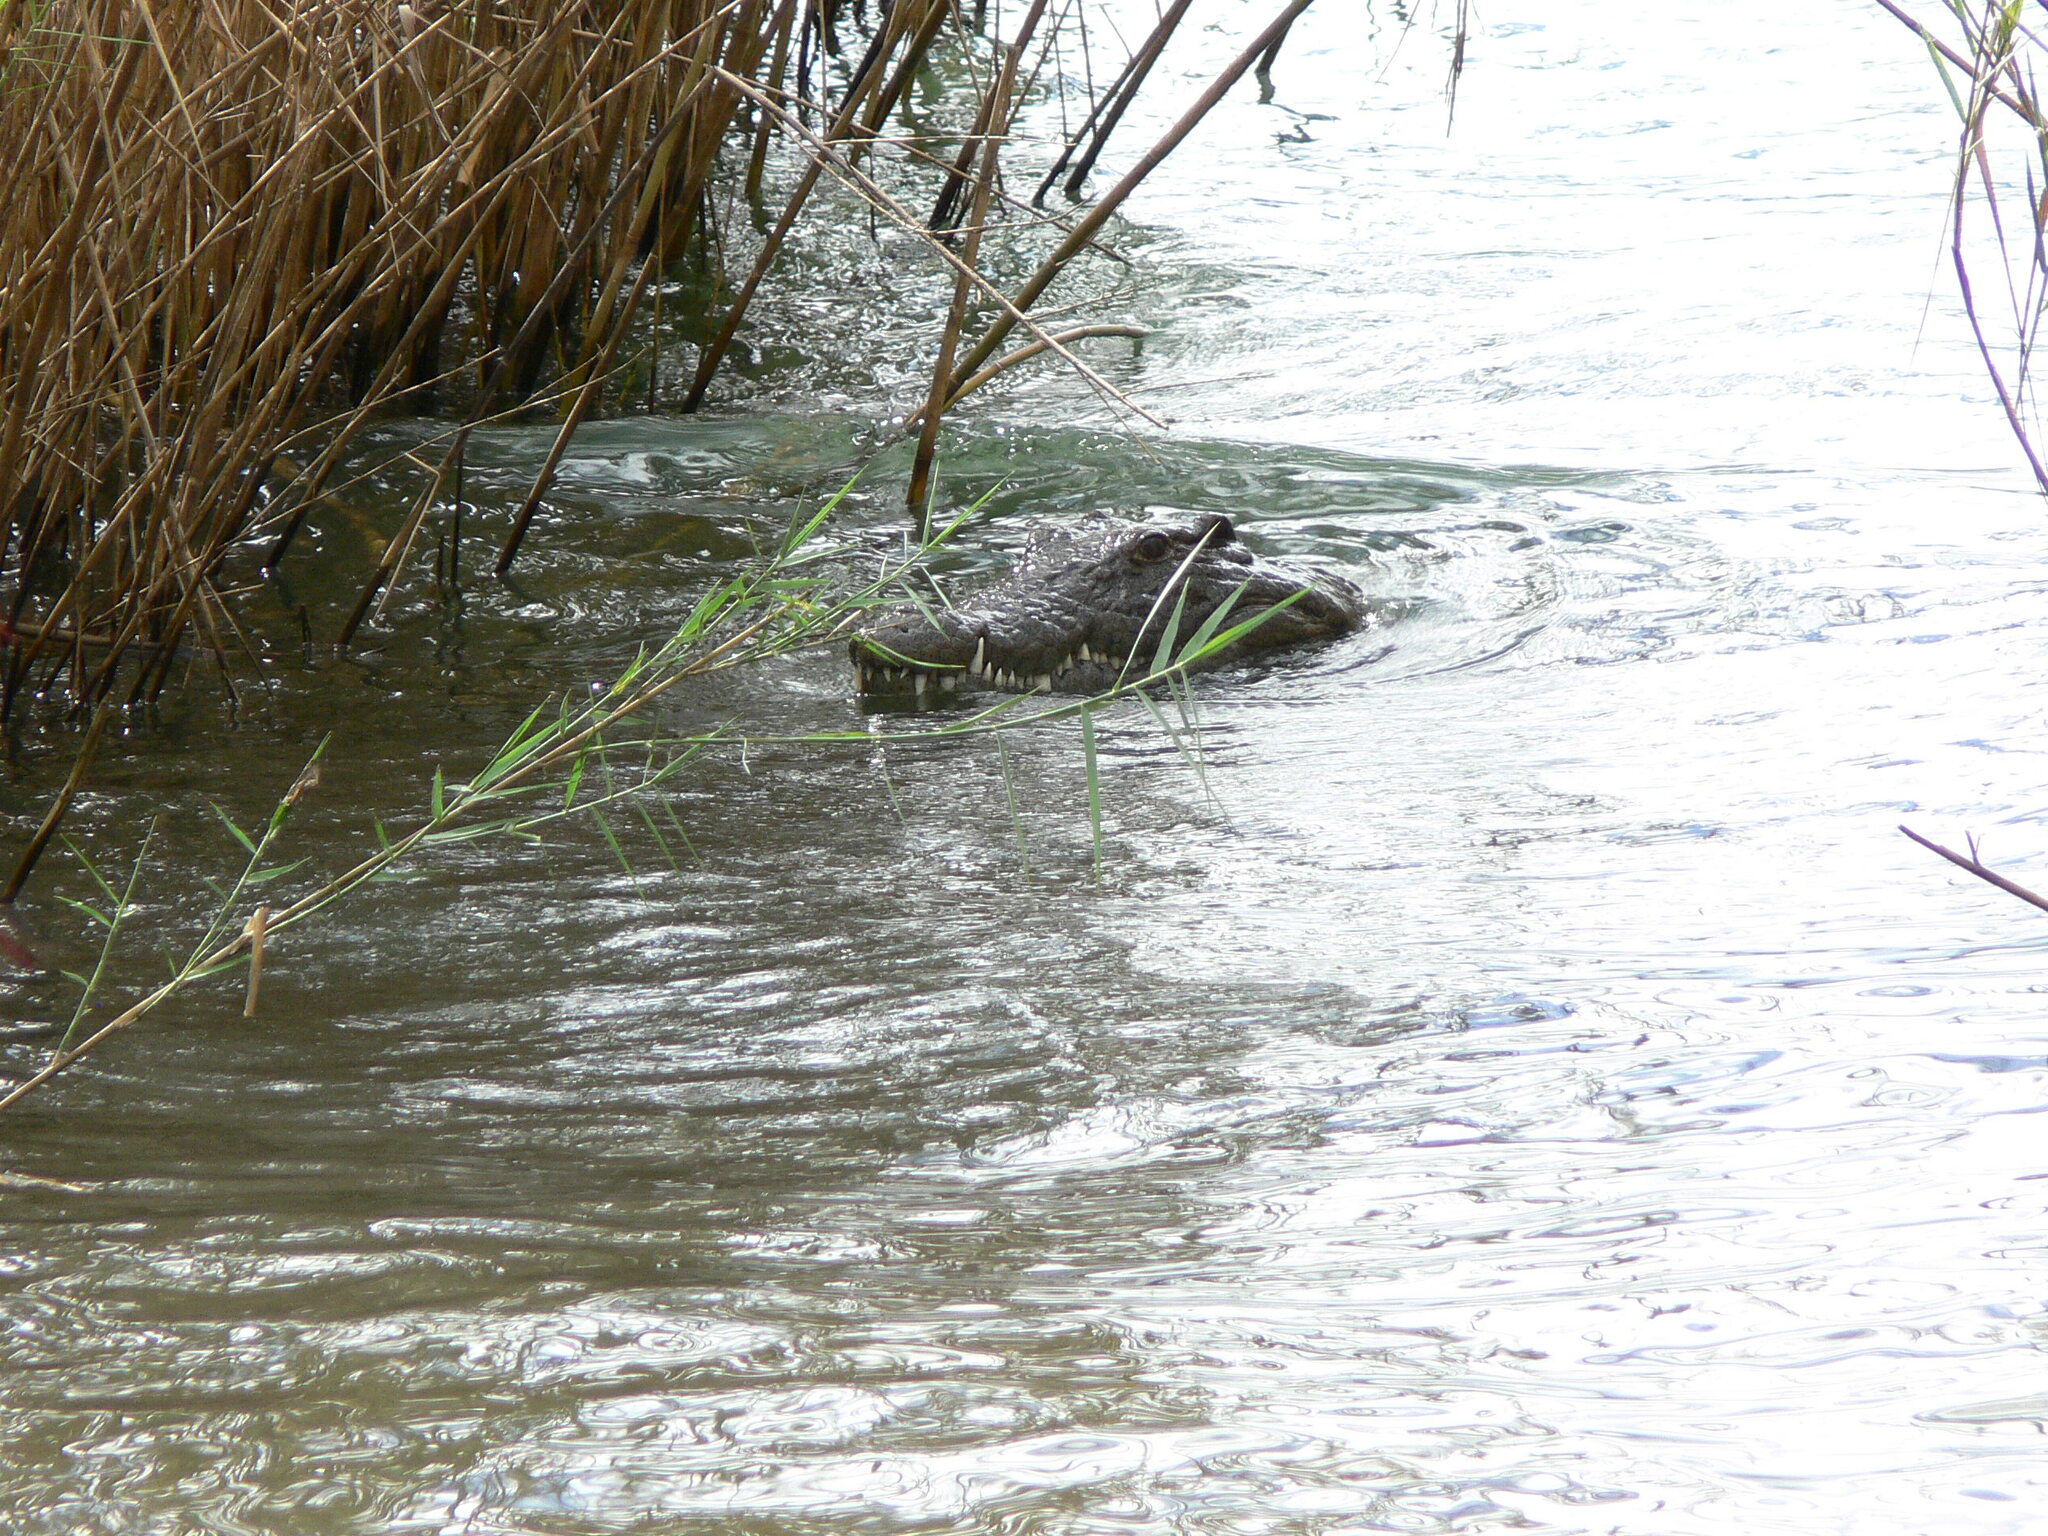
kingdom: Animalia
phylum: Chordata
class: Crocodylia
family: Crocodylidae
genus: Crocodylus
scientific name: Crocodylus niloticus
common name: Nile crocodile
